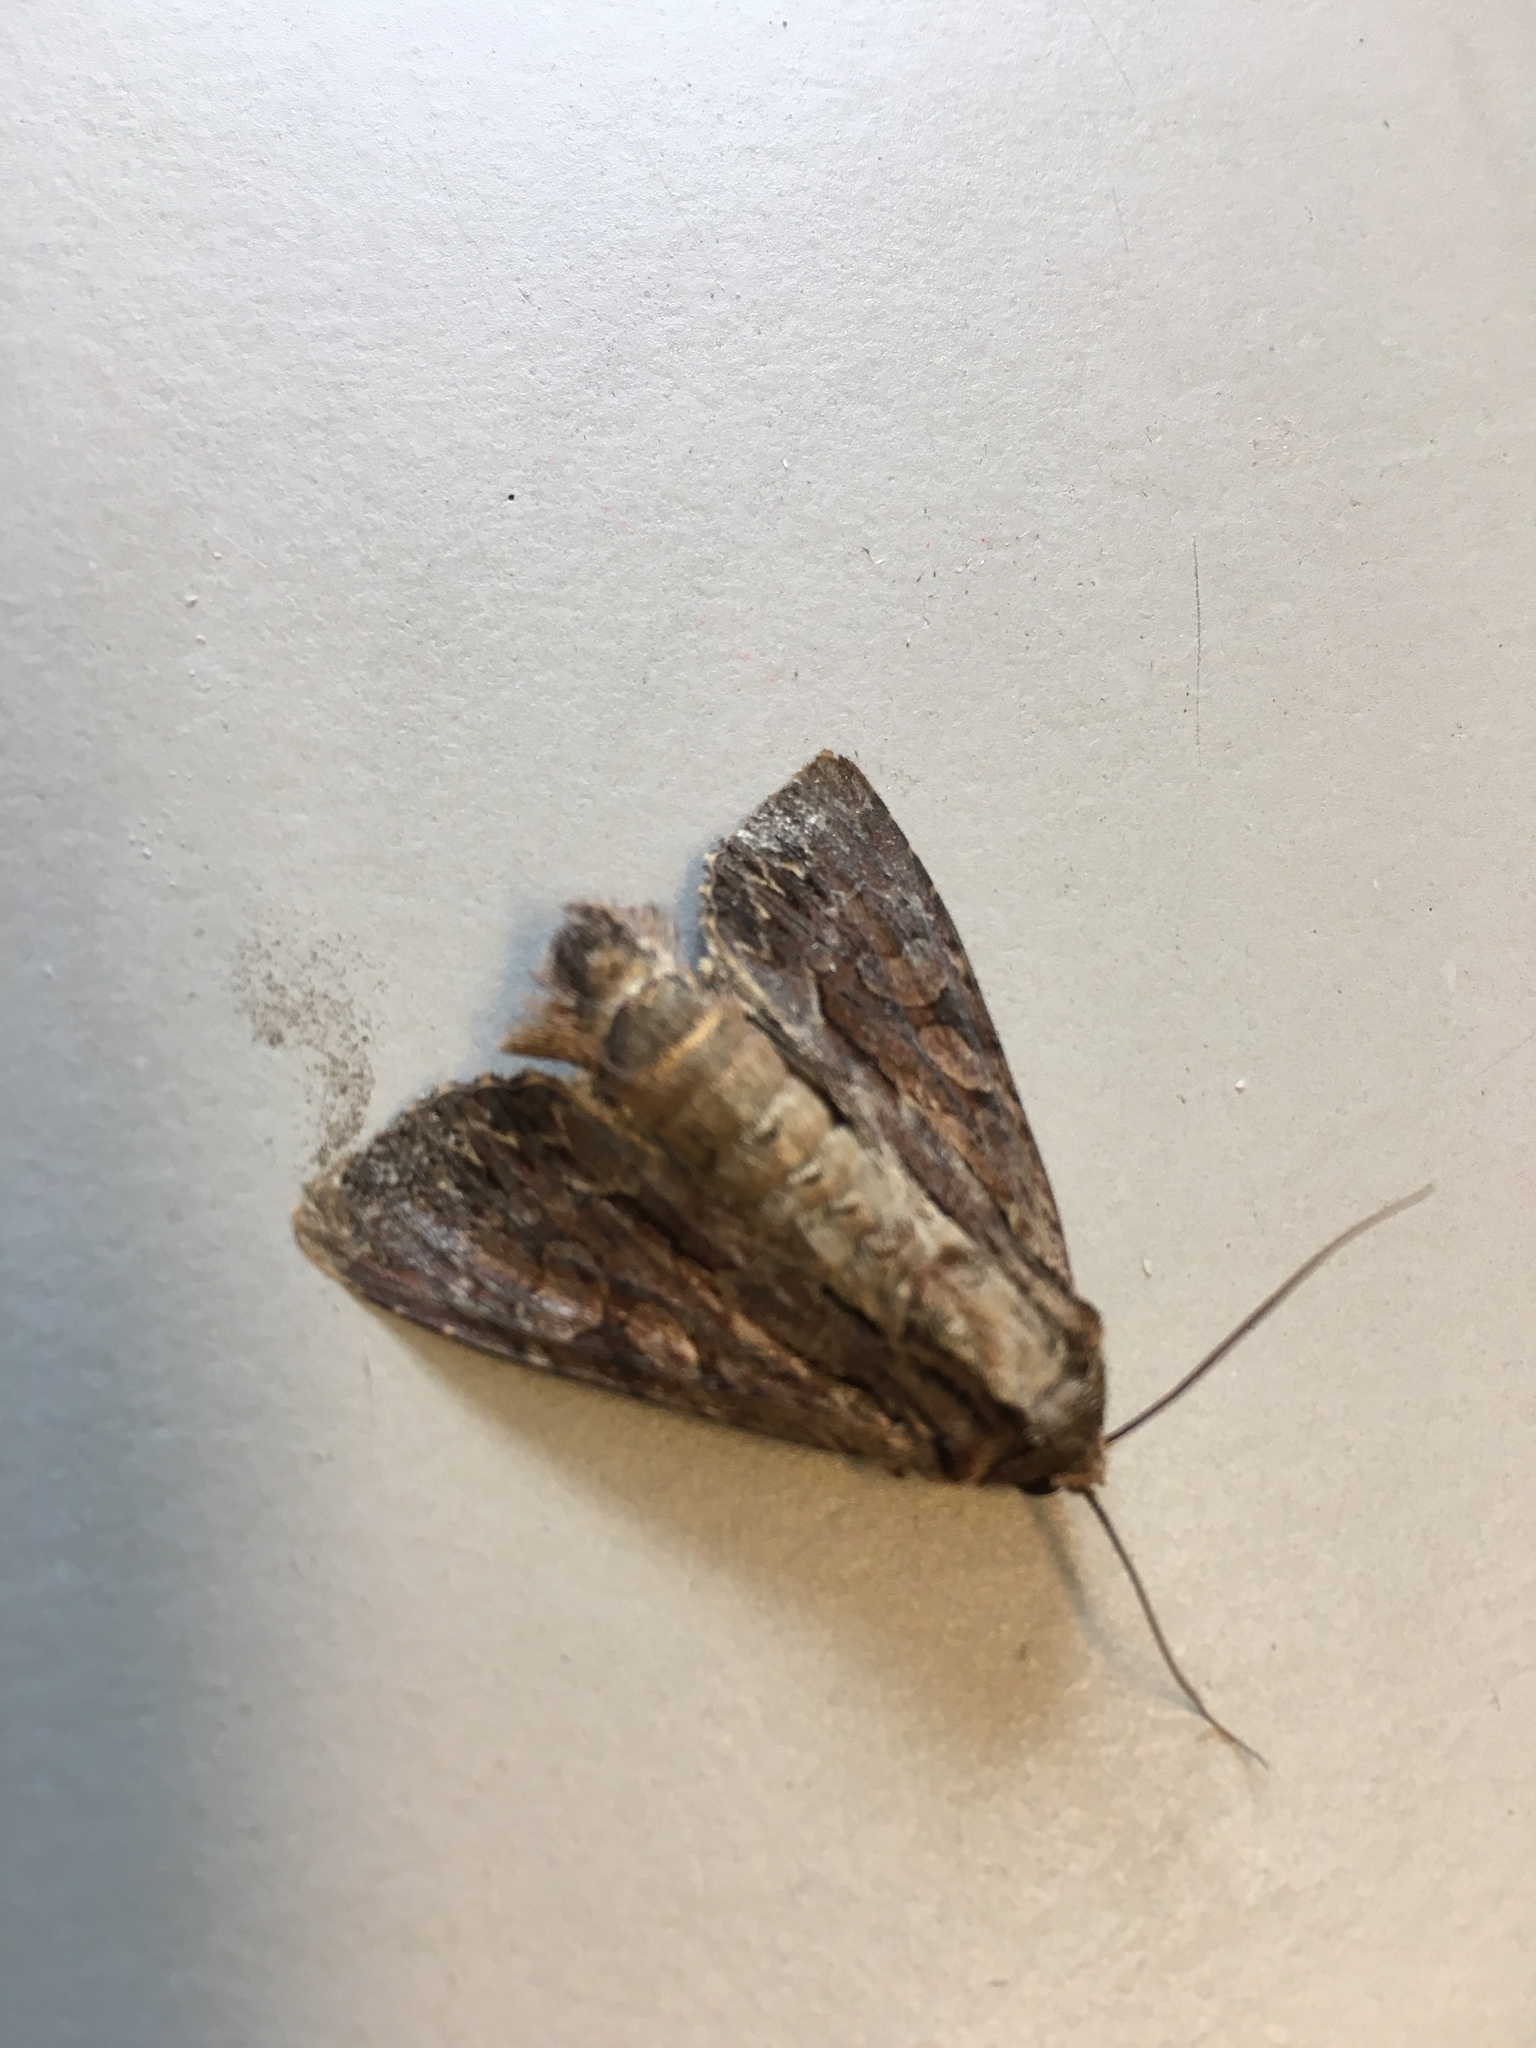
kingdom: Animalia
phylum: Arthropoda
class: Insecta
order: Lepidoptera
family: Noctuidae
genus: Apamea
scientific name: Apamea monoglypha
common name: Dark arches
